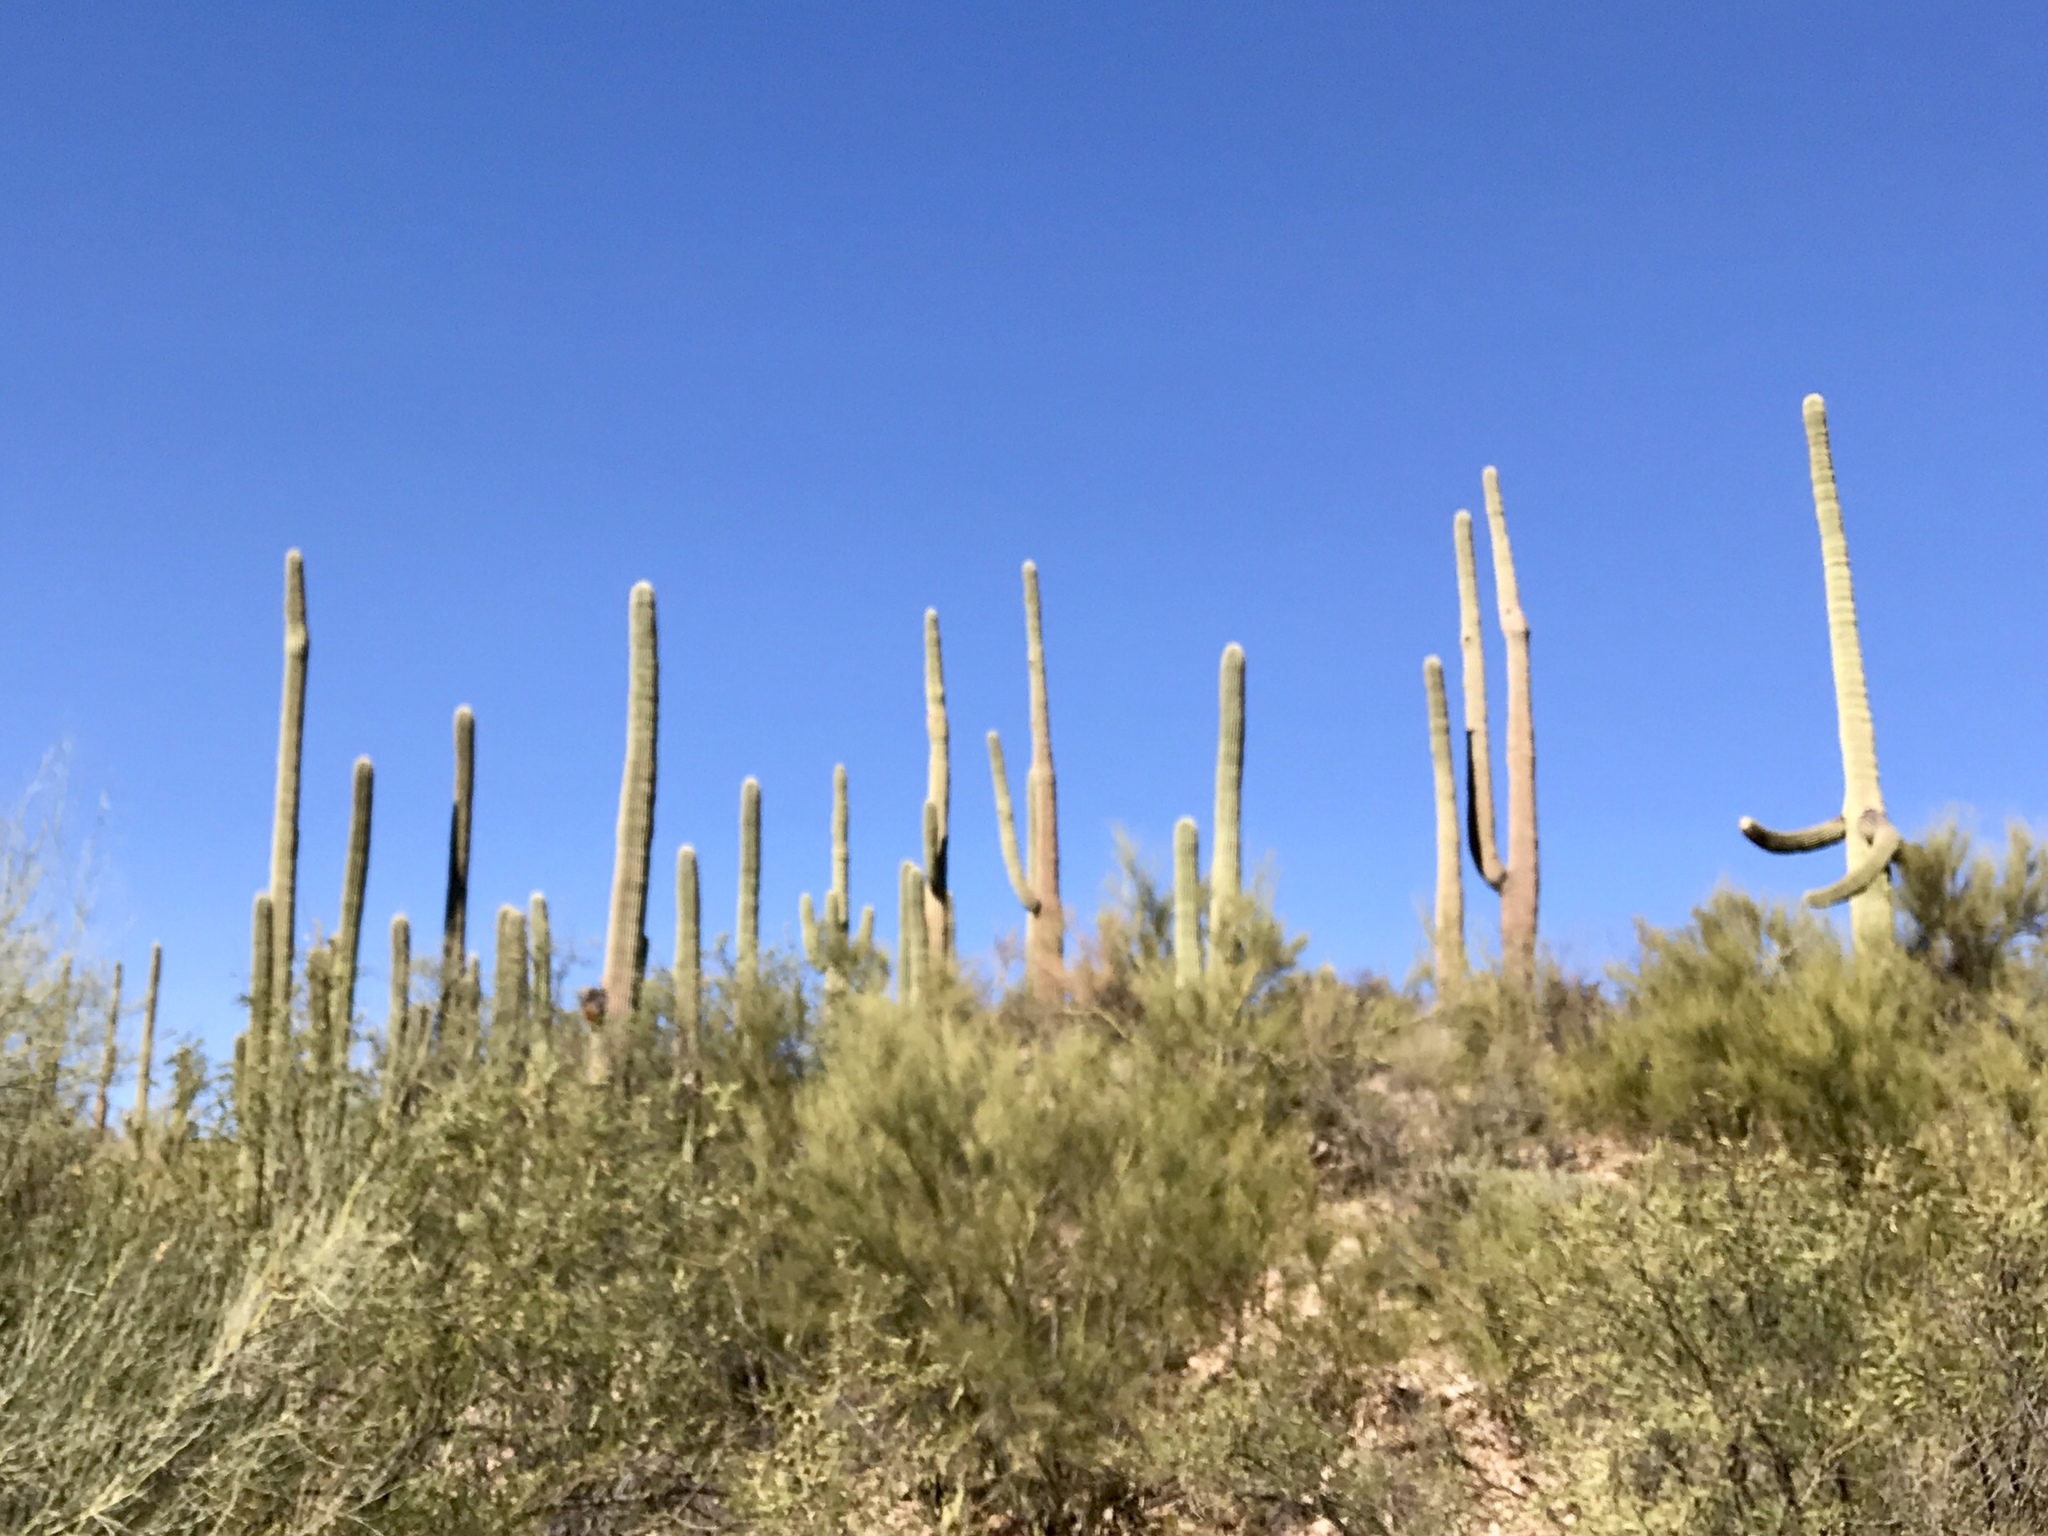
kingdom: Plantae
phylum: Tracheophyta
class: Magnoliopsida
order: Caryophyllales
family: Cactaceae
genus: Carnegiea
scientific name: Carnegiea gigantea
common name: Saguaro
